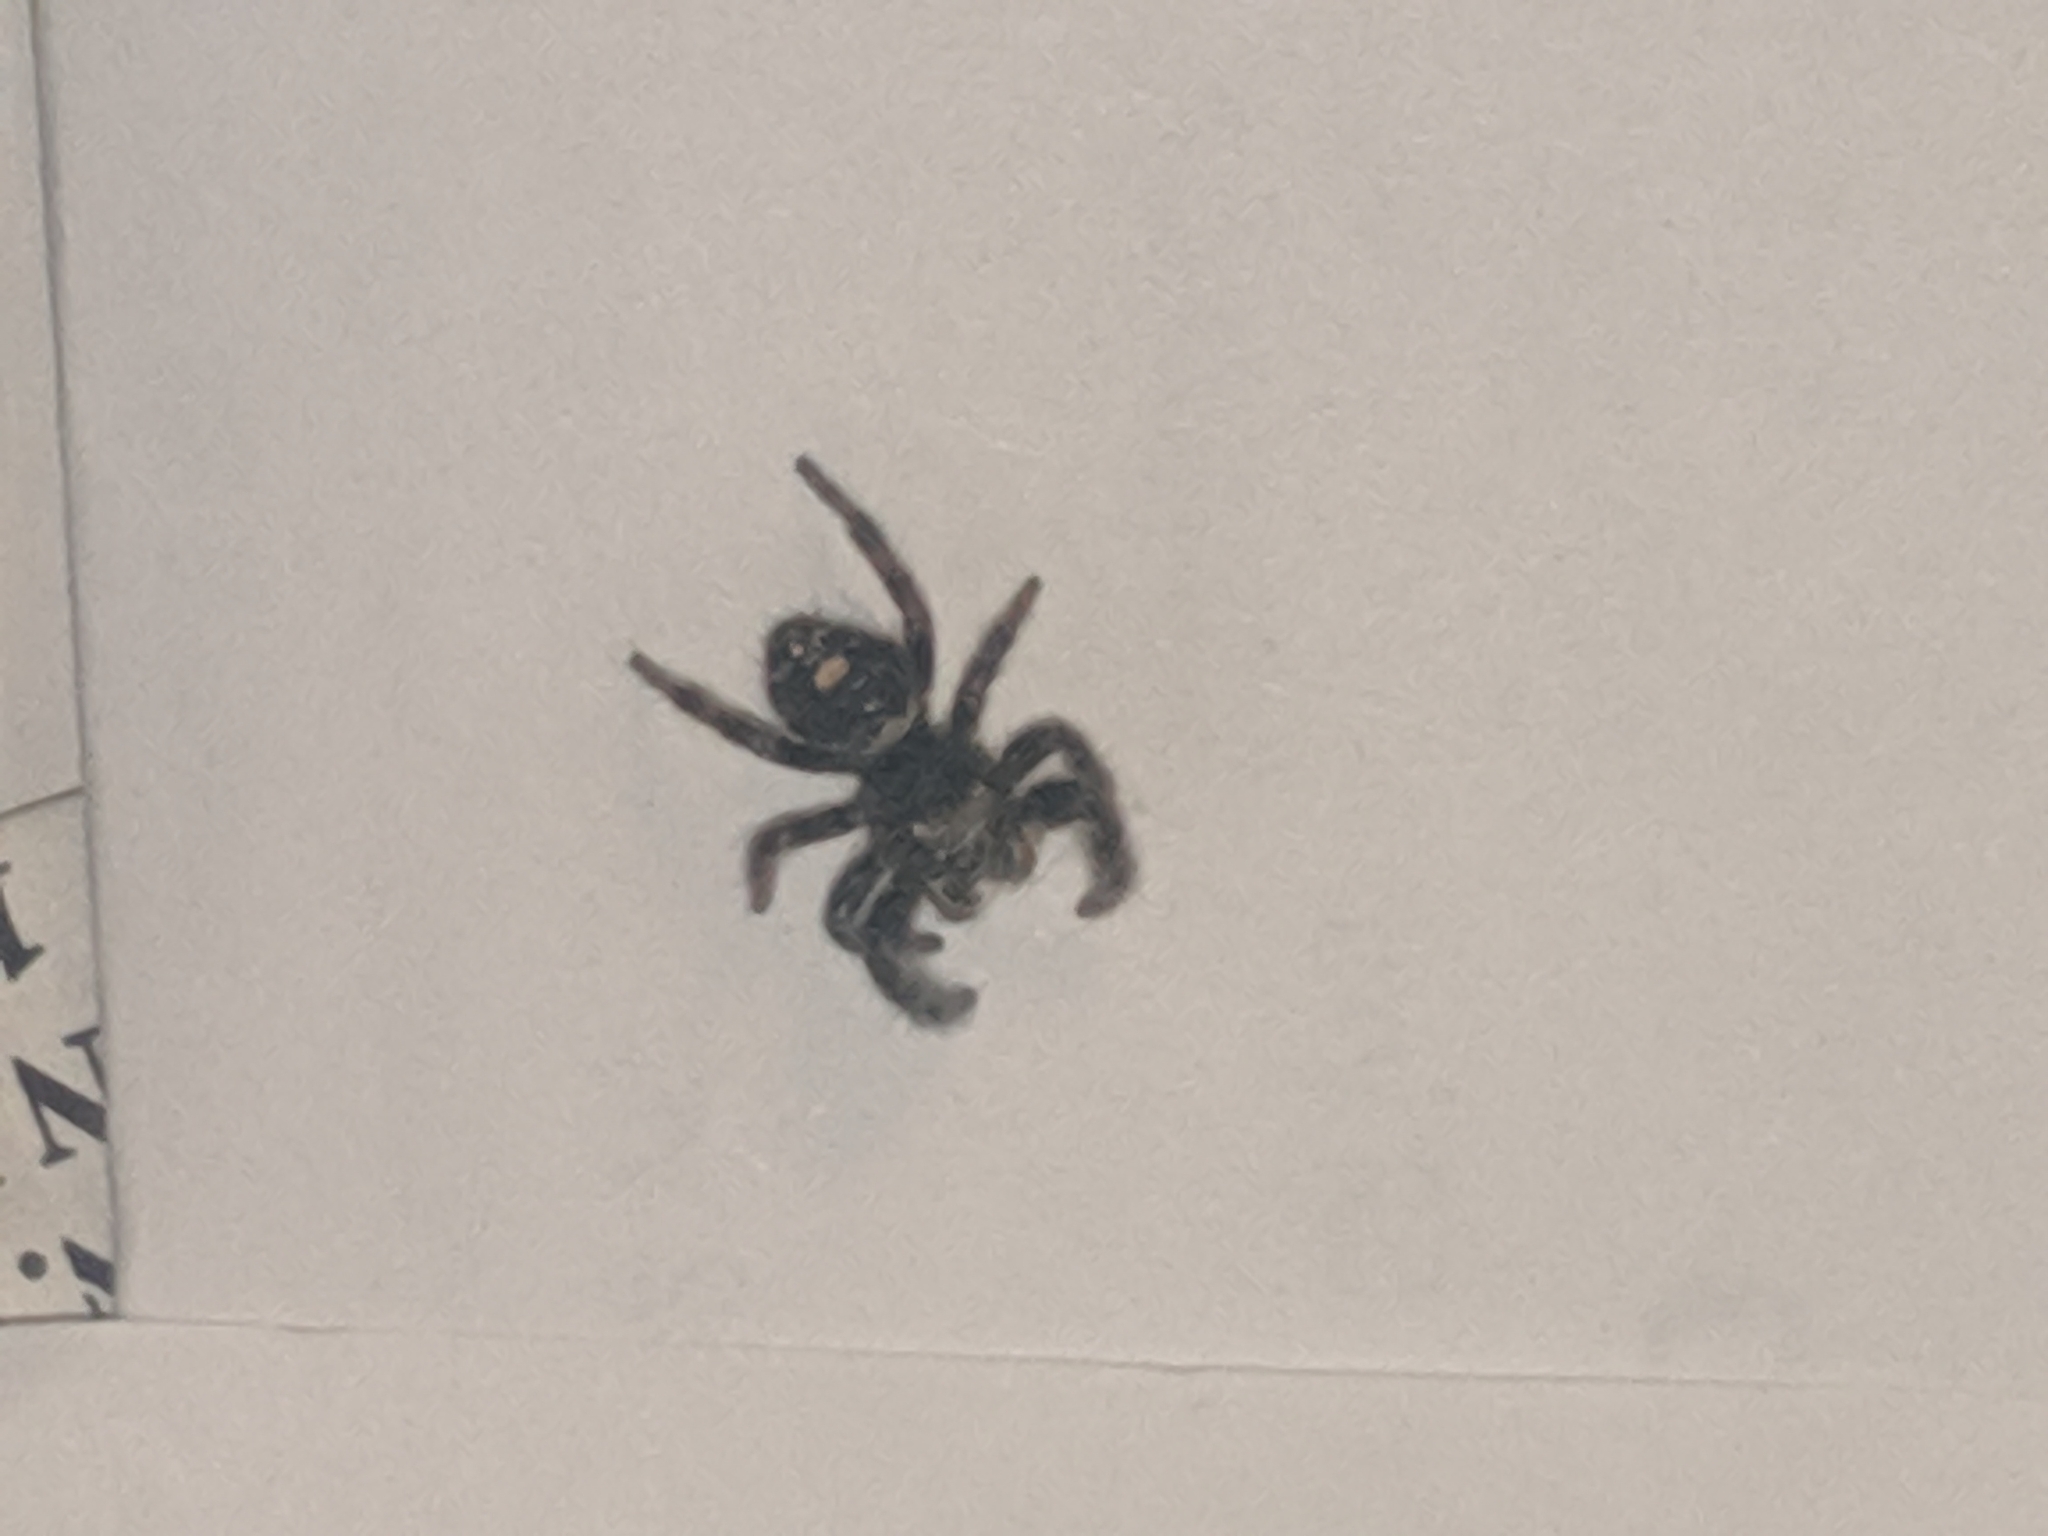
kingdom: Animalia
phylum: Arthropoda
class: Arachnida
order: Araneae
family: Salticidae
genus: Phidippus
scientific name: Phidippus audax
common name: Bold jumper
